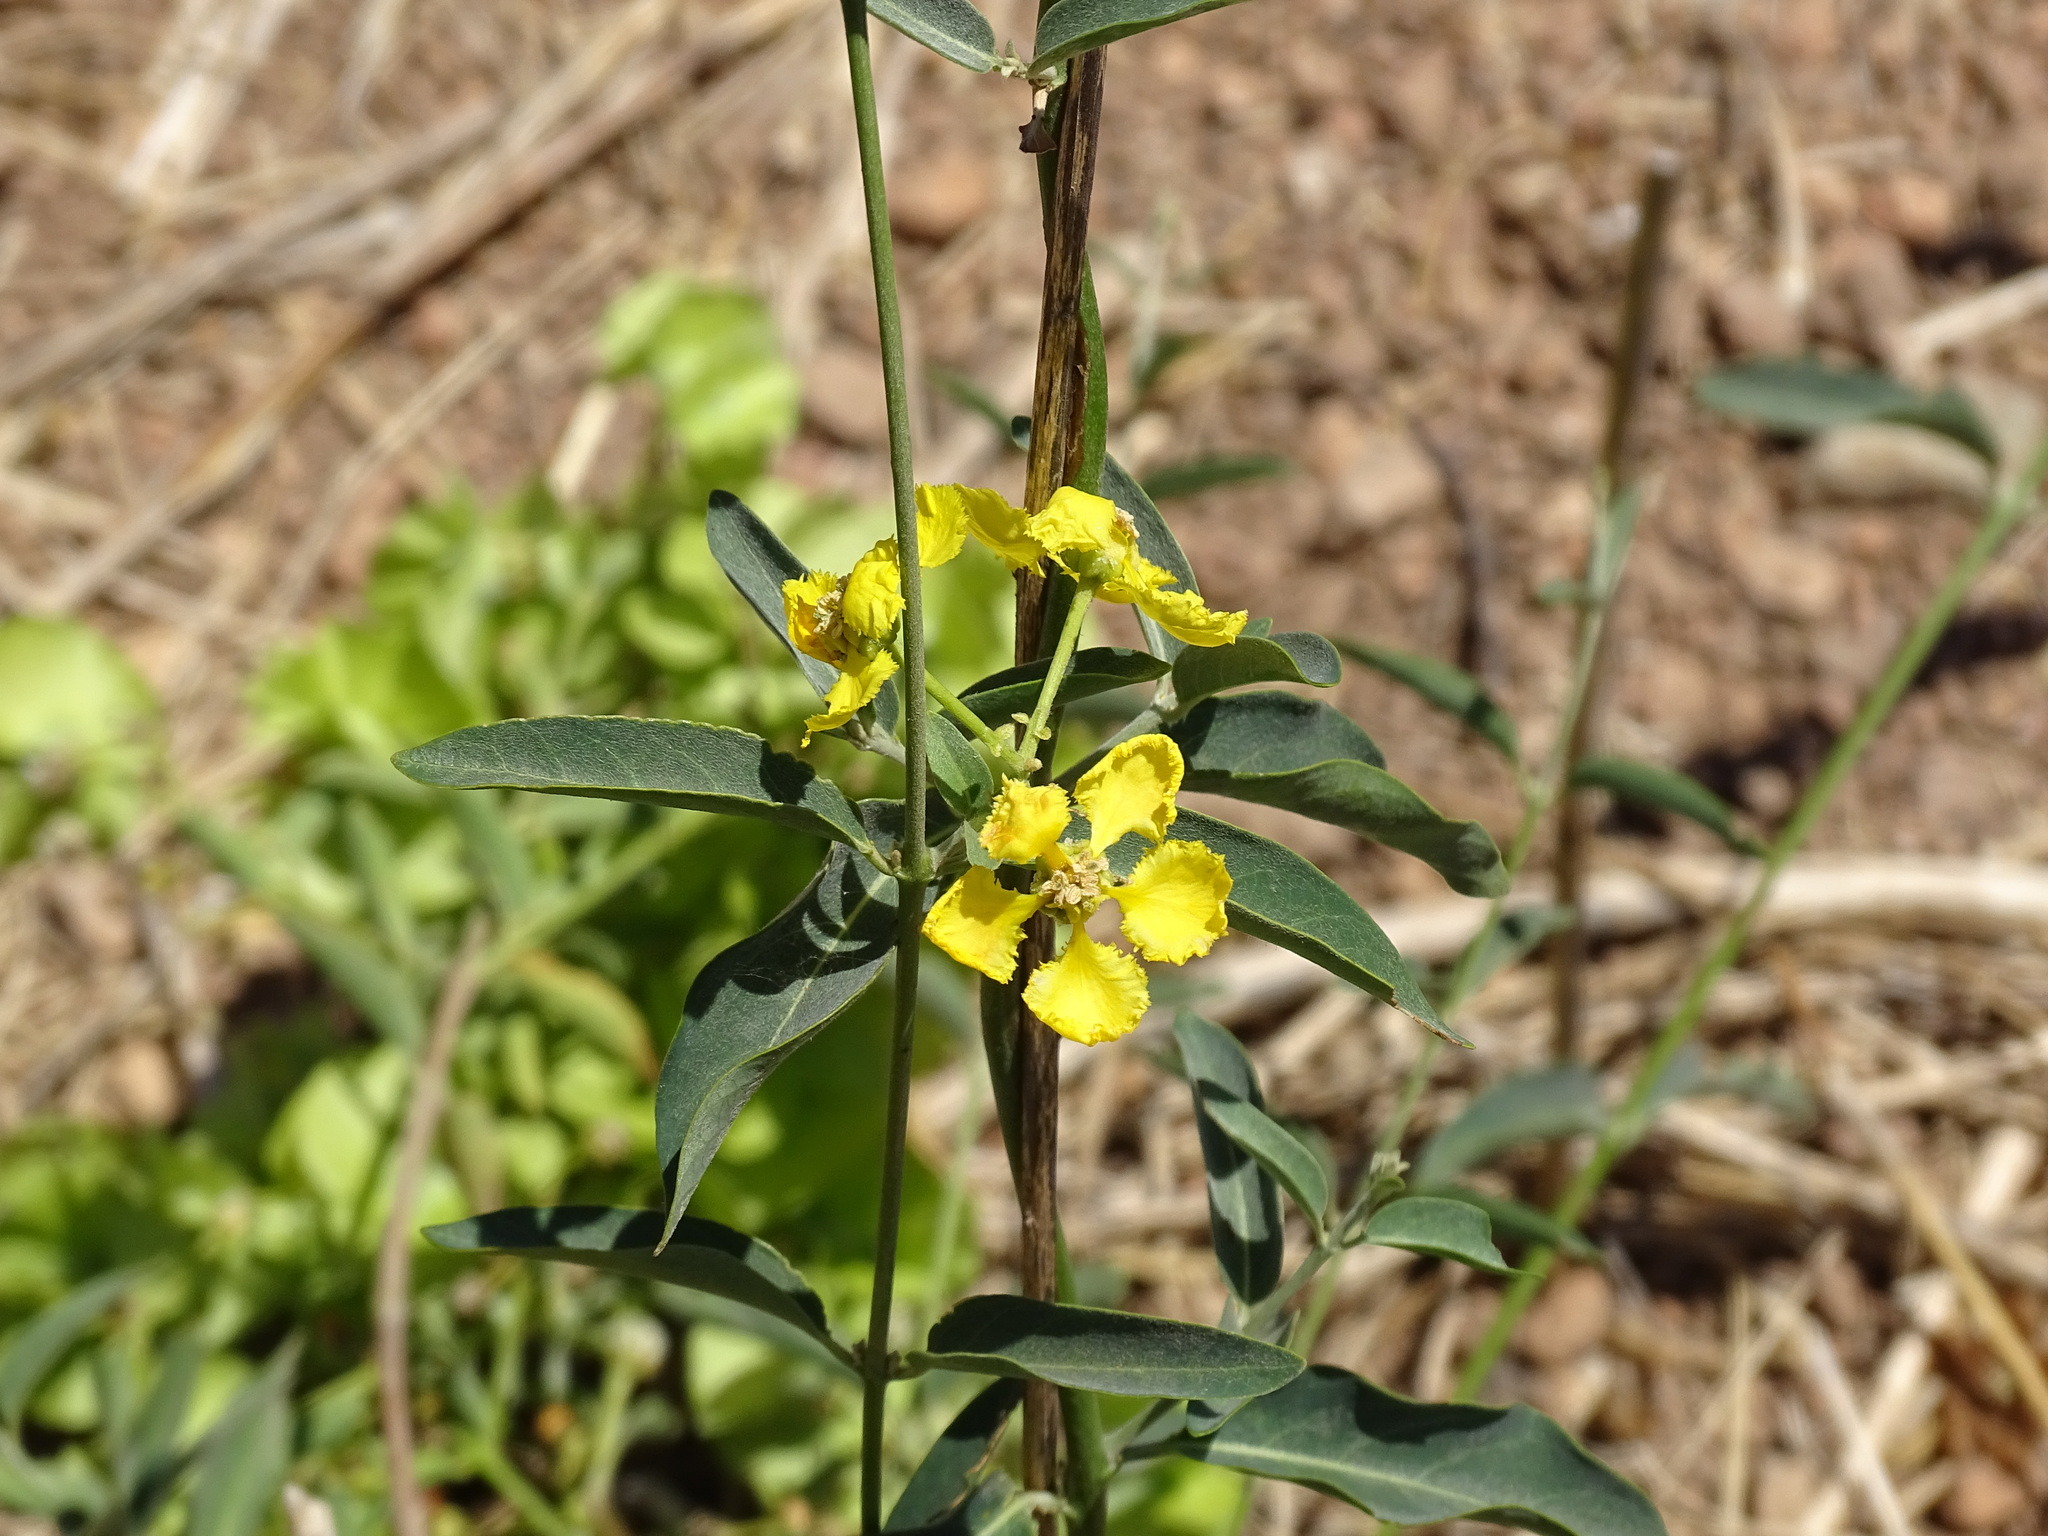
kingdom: Plantae
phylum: Tracheophyta
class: Magnoliopsida
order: Malpighiales
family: Malpighiaceae
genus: Callaeum
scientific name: Callaeum macropterum
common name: Mexican butterfly-vine
